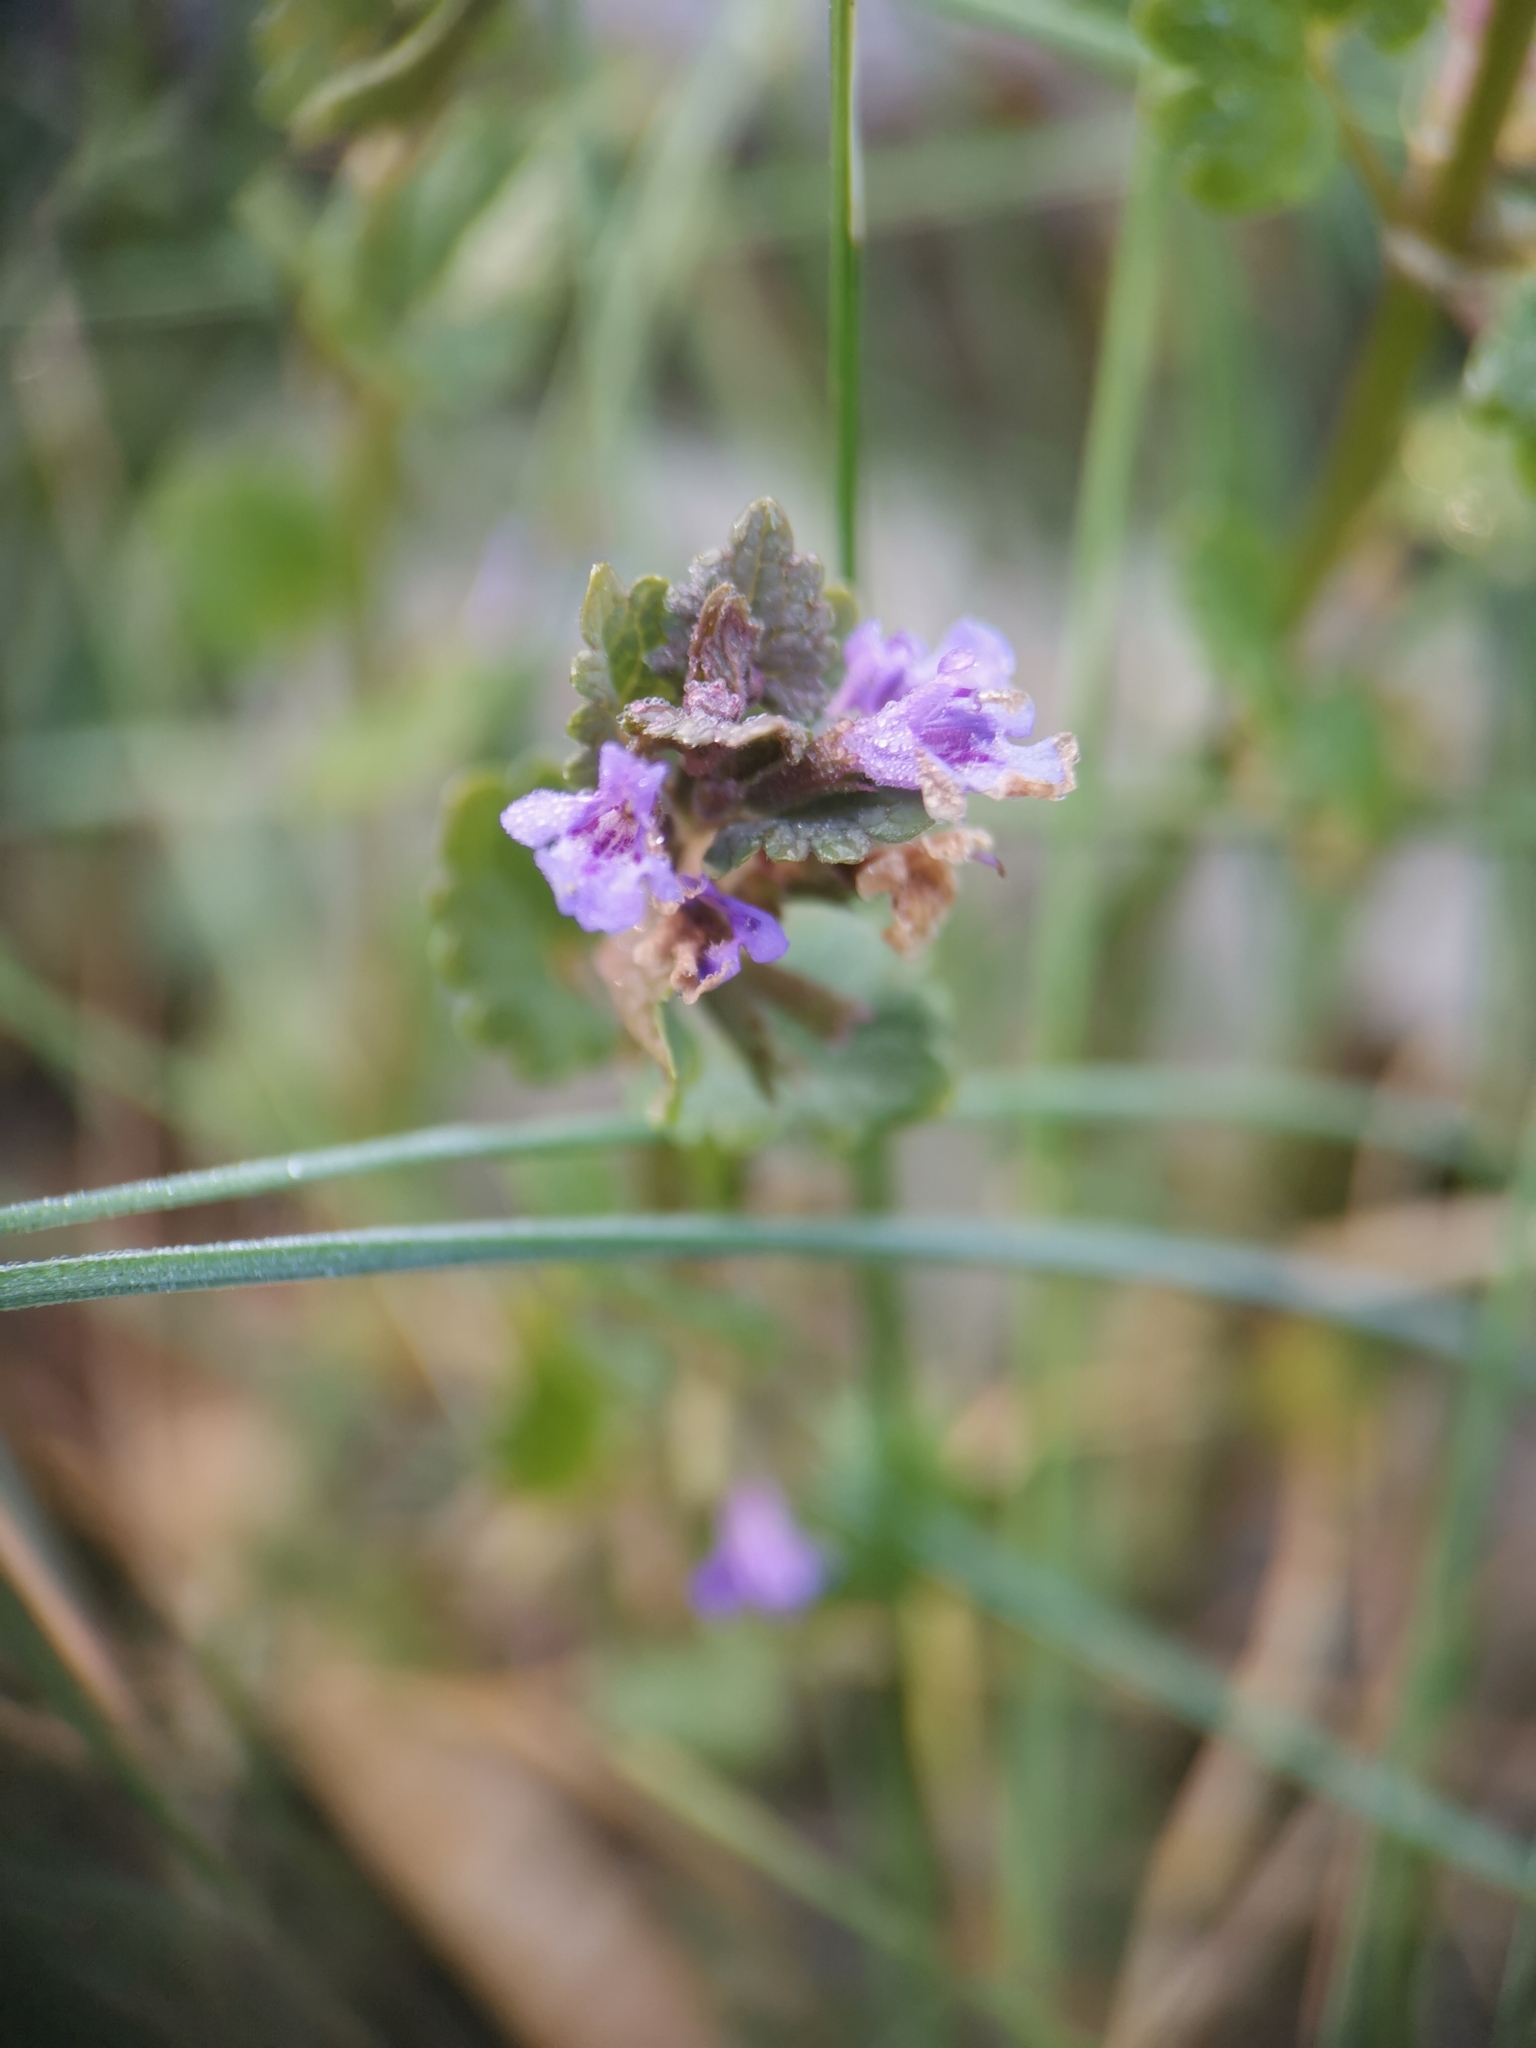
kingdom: Plantae
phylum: Tracheophyta
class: Magnoliopsida
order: Lamiales
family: Lamiaceae
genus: Glechoma
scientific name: Glechoma hederacea
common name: Ground ivy
